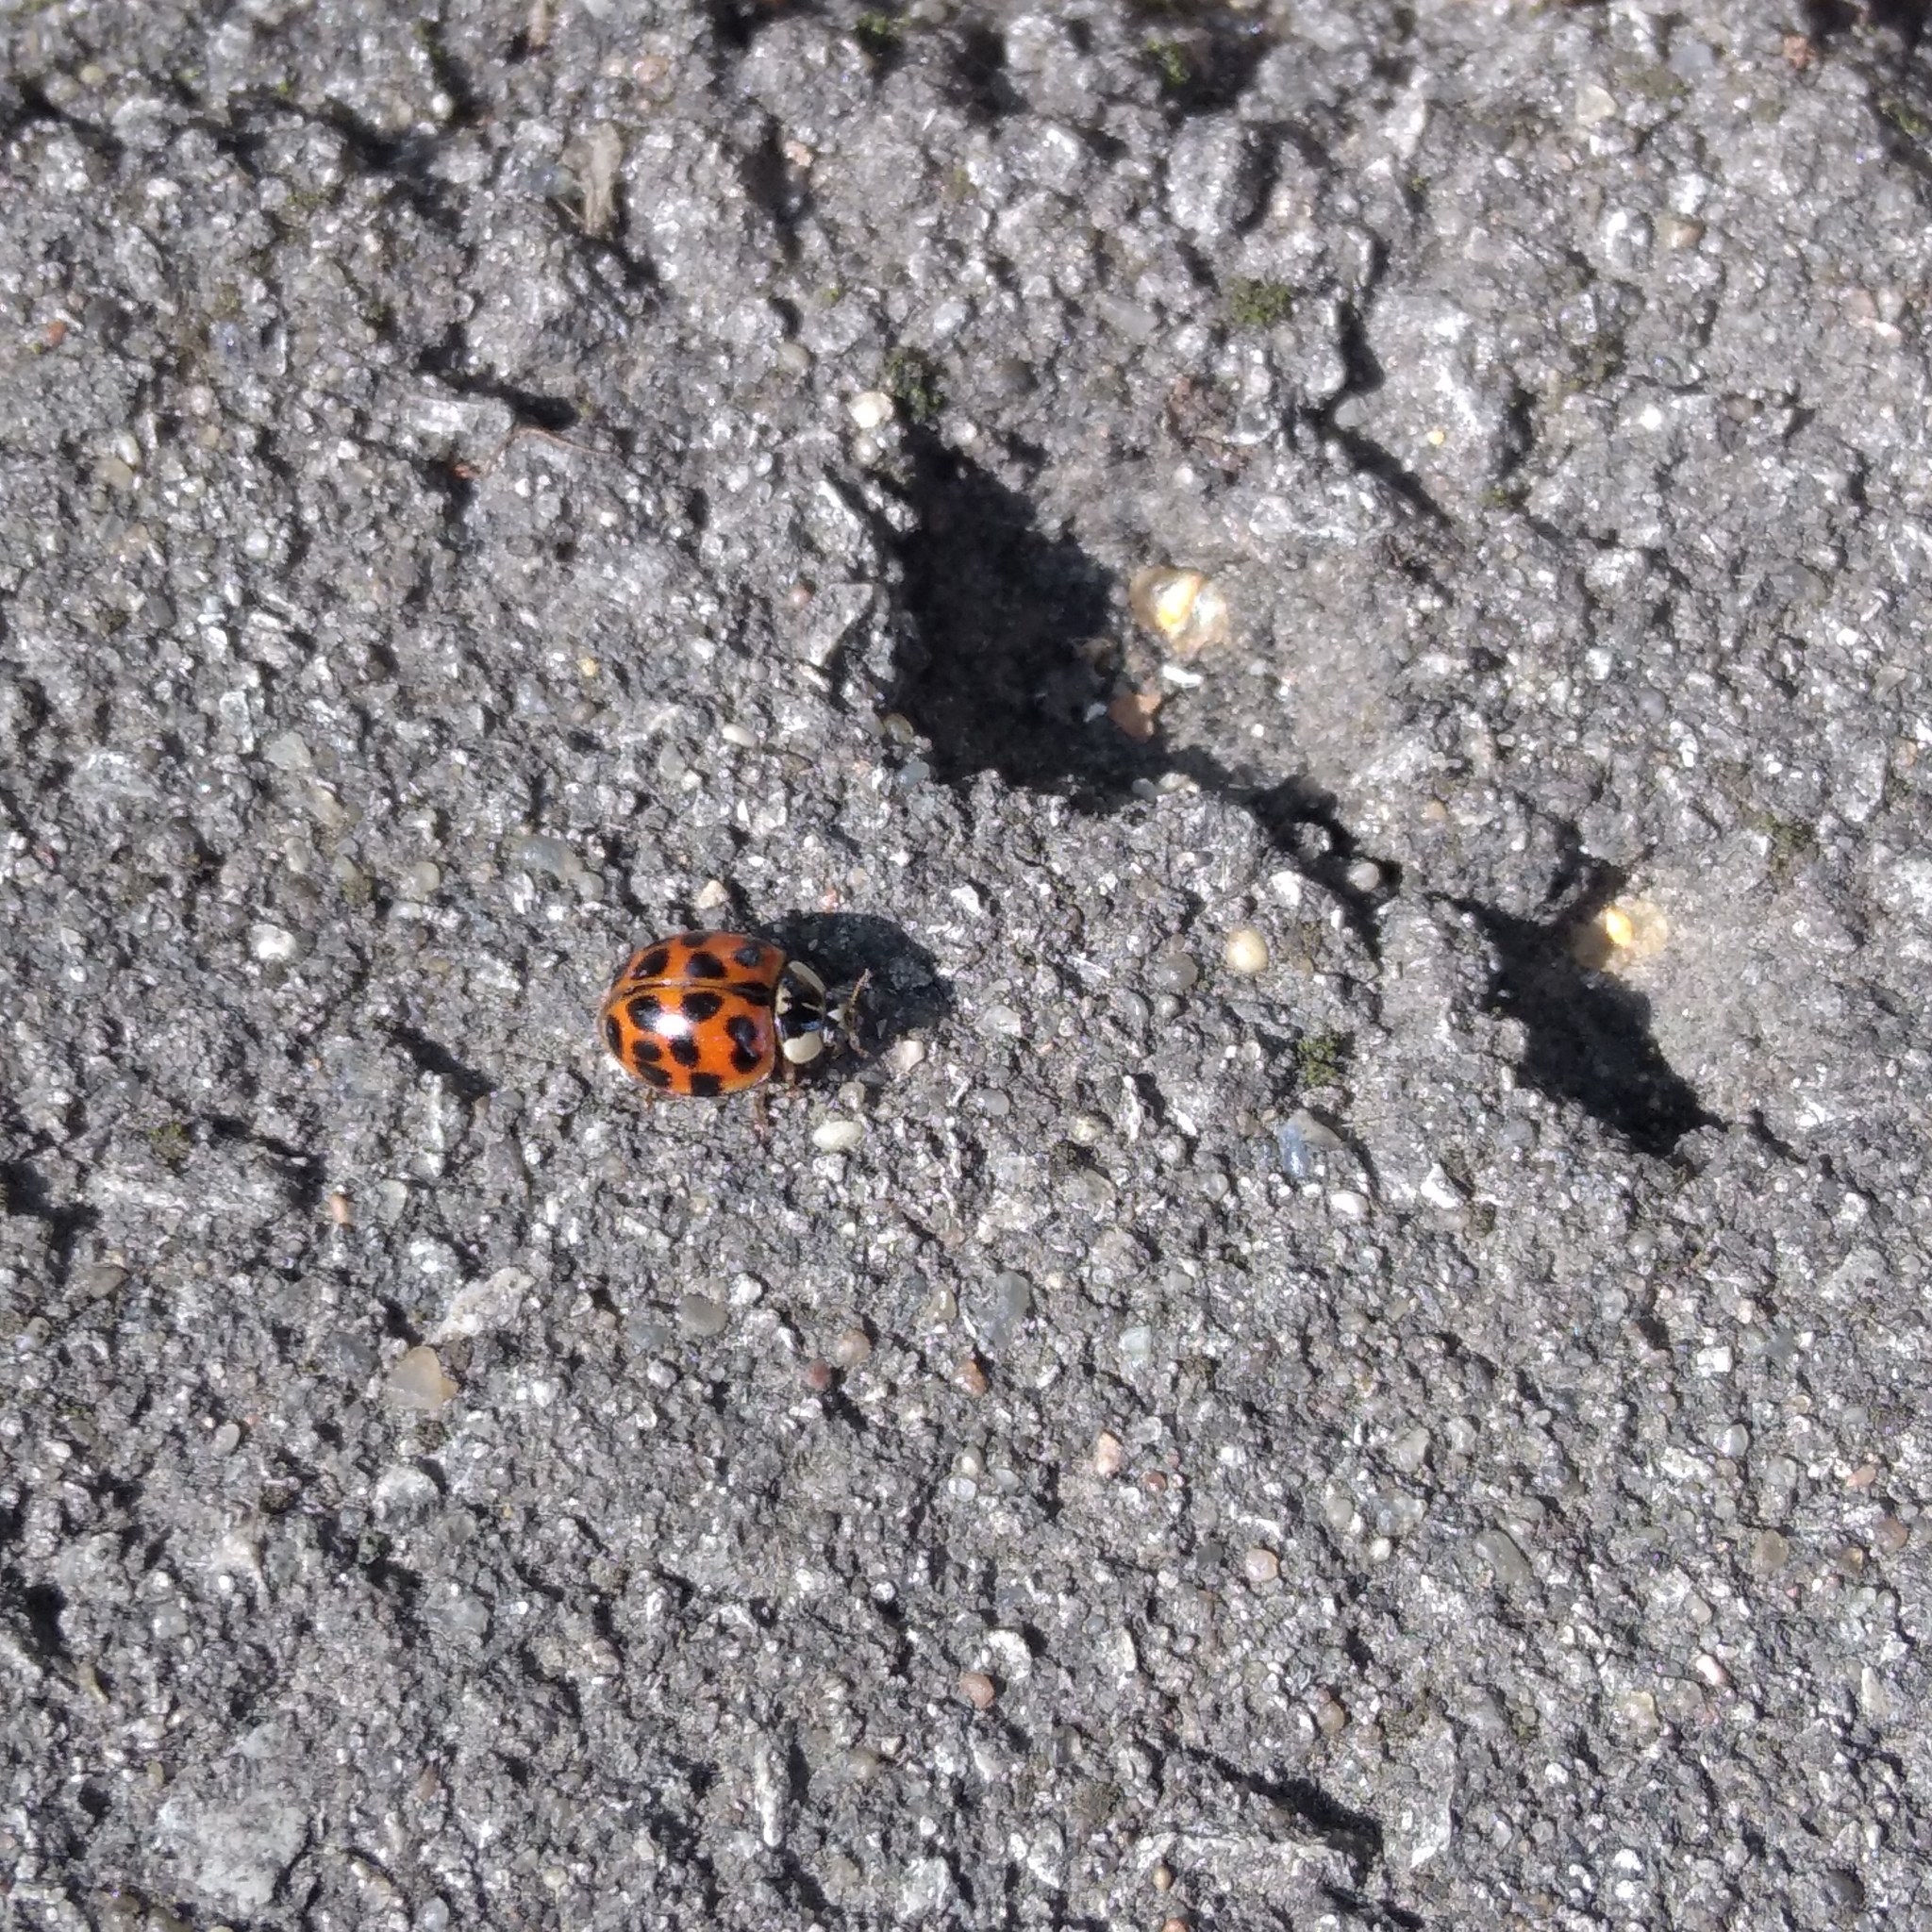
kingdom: Animalia
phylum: Arthropoda
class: Insecta
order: Coleoptera
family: Coccinellidae
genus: Harmonia
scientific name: Harmonia axyridis
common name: Harlequin ladybird
